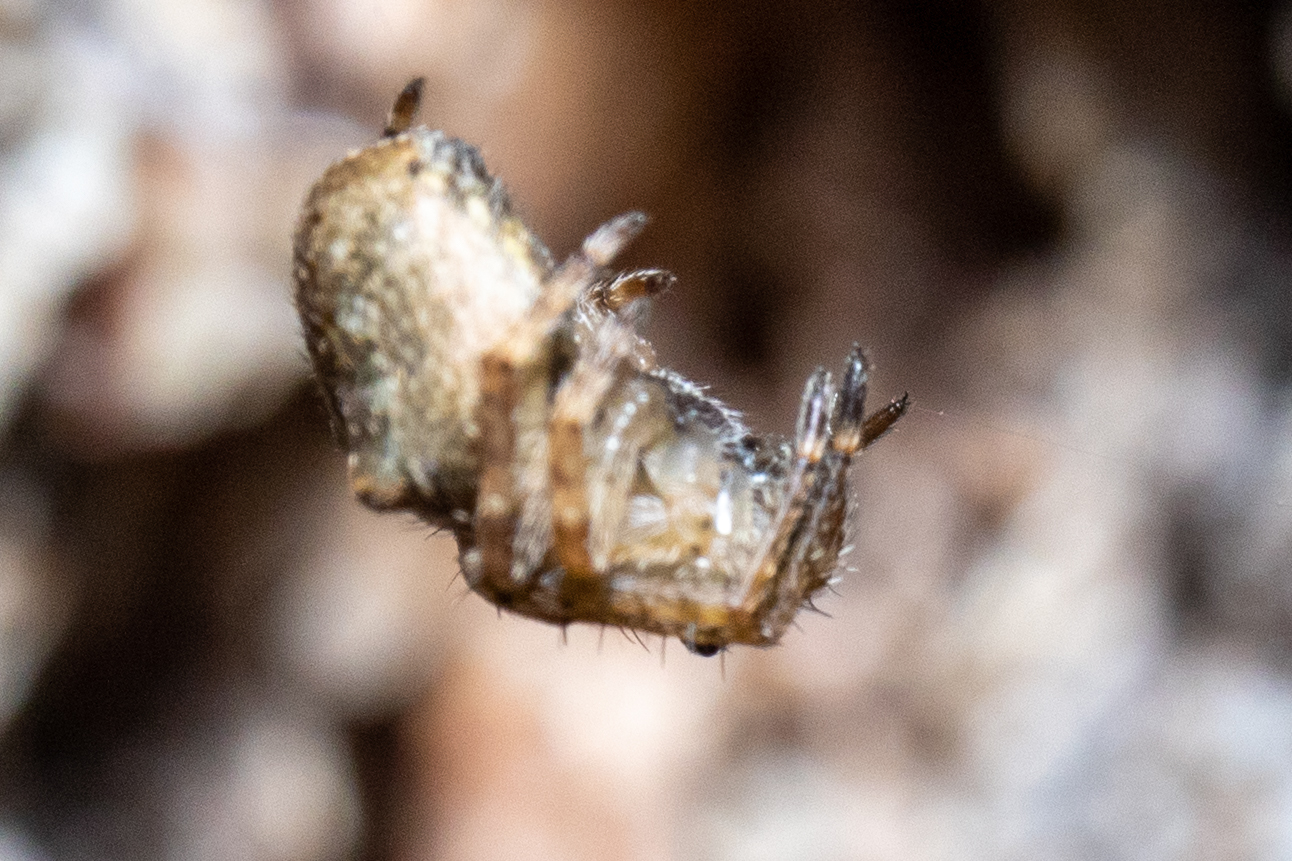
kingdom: Animalia
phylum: Arthropoda
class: Arachnida
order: Araneae
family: Araneidae
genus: Gibbaranea
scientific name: Gibbaranea gibbosa
